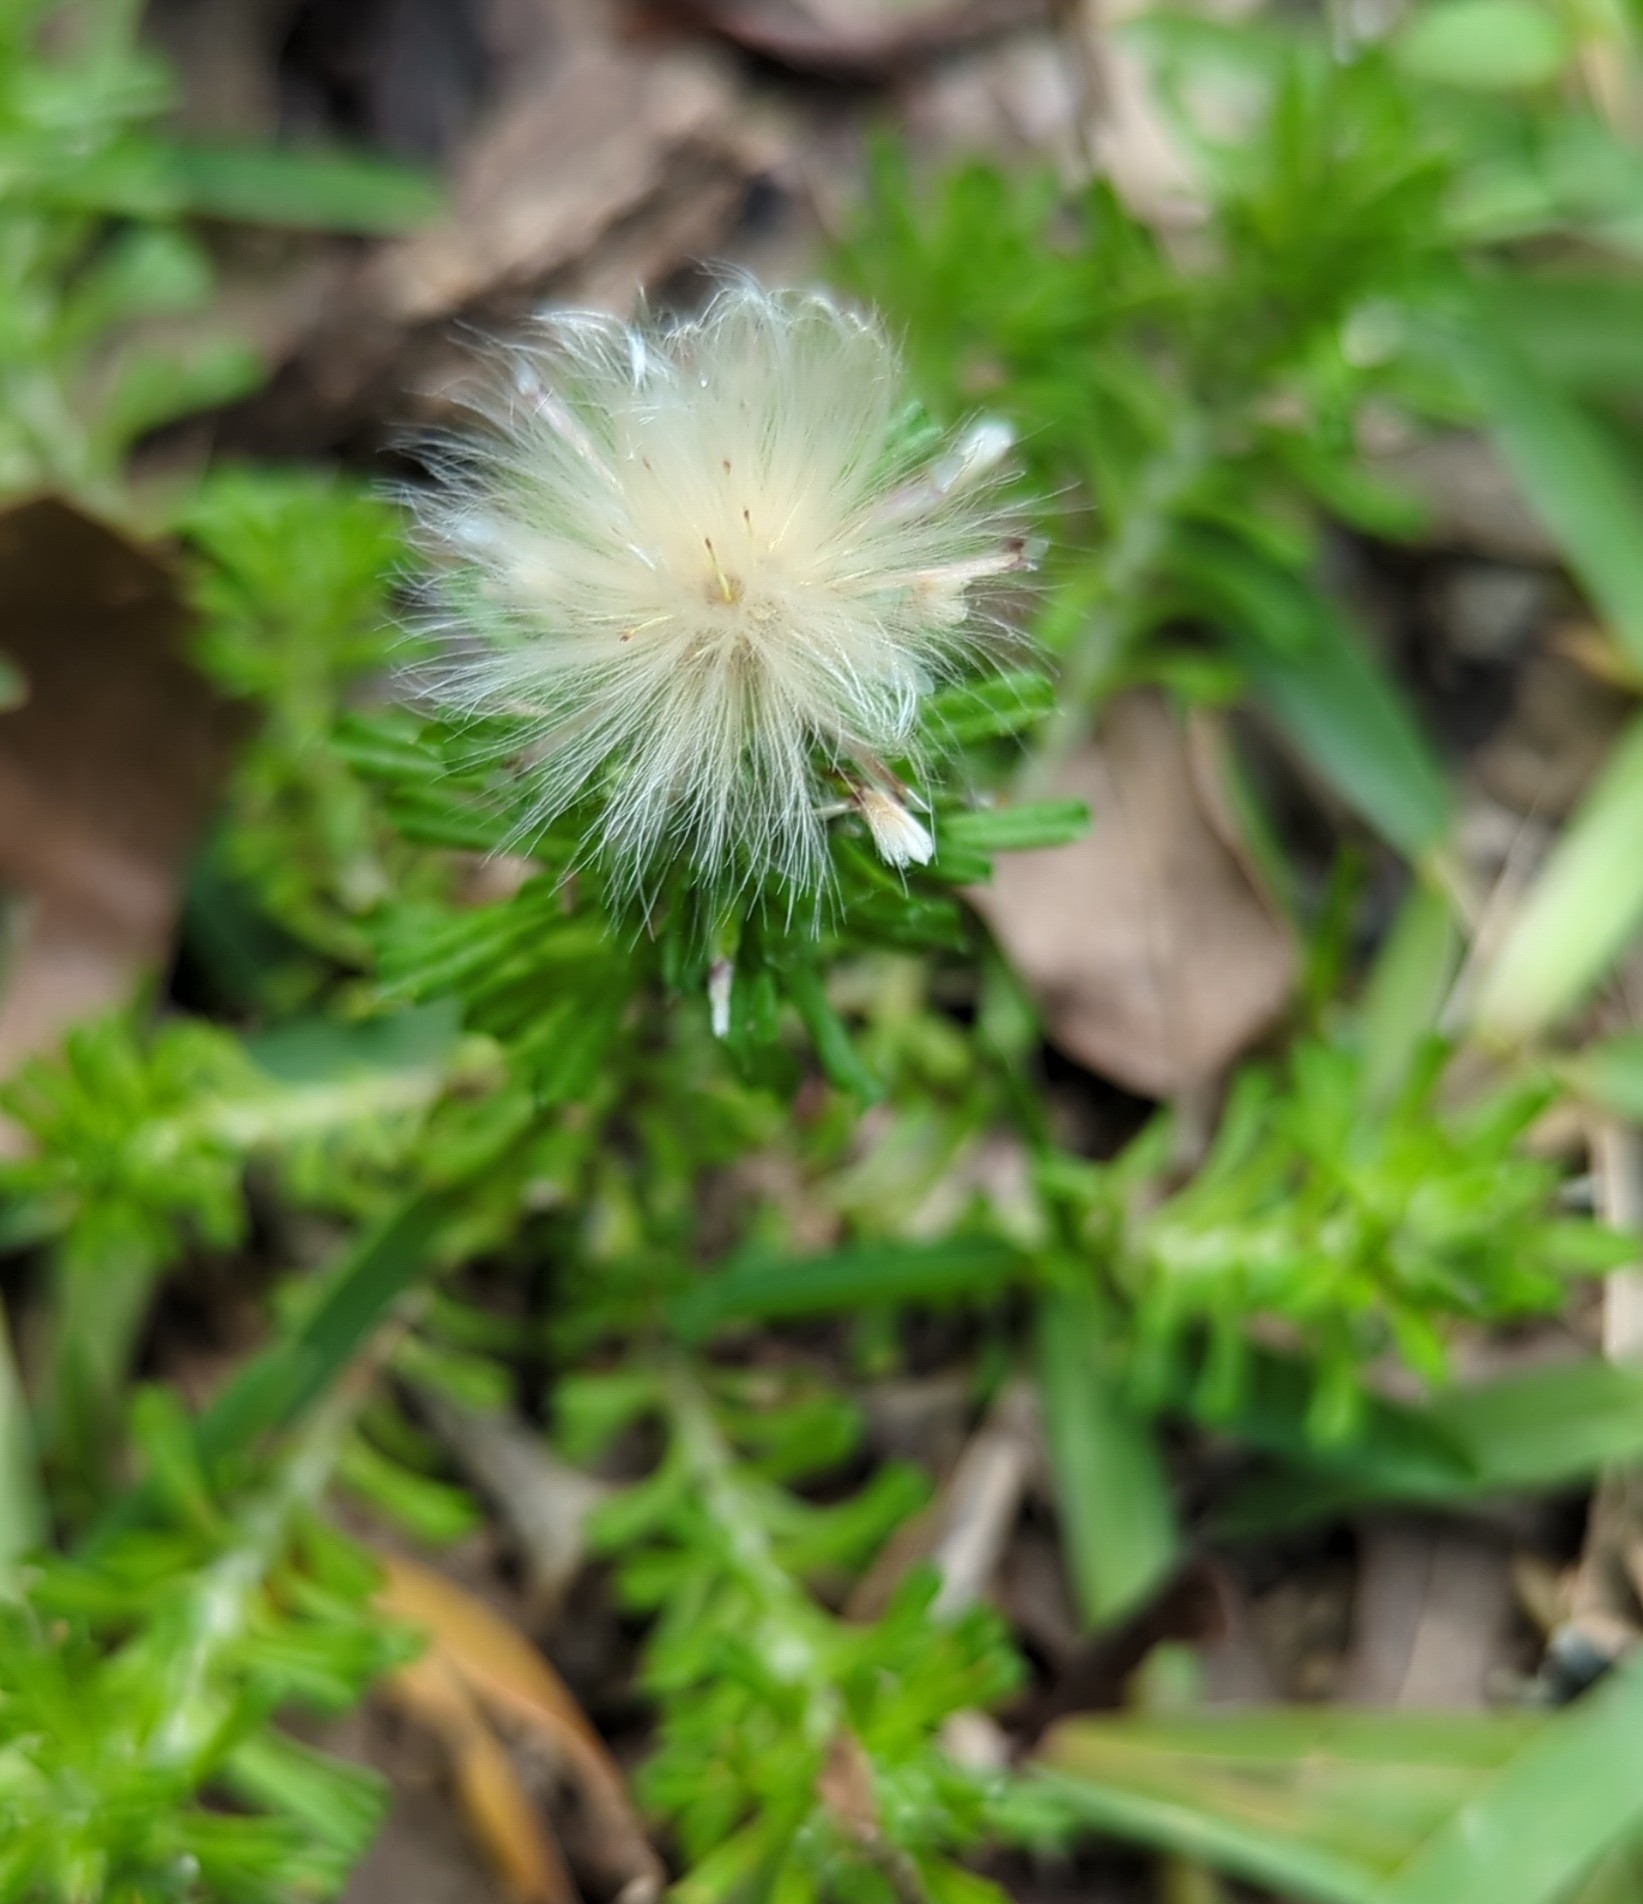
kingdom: Plantae
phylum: Tracheophyta
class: Magnoliopsida
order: Asterales
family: Asteraceae
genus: Facelis
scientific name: Facelis retusa
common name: Annual trampweed
